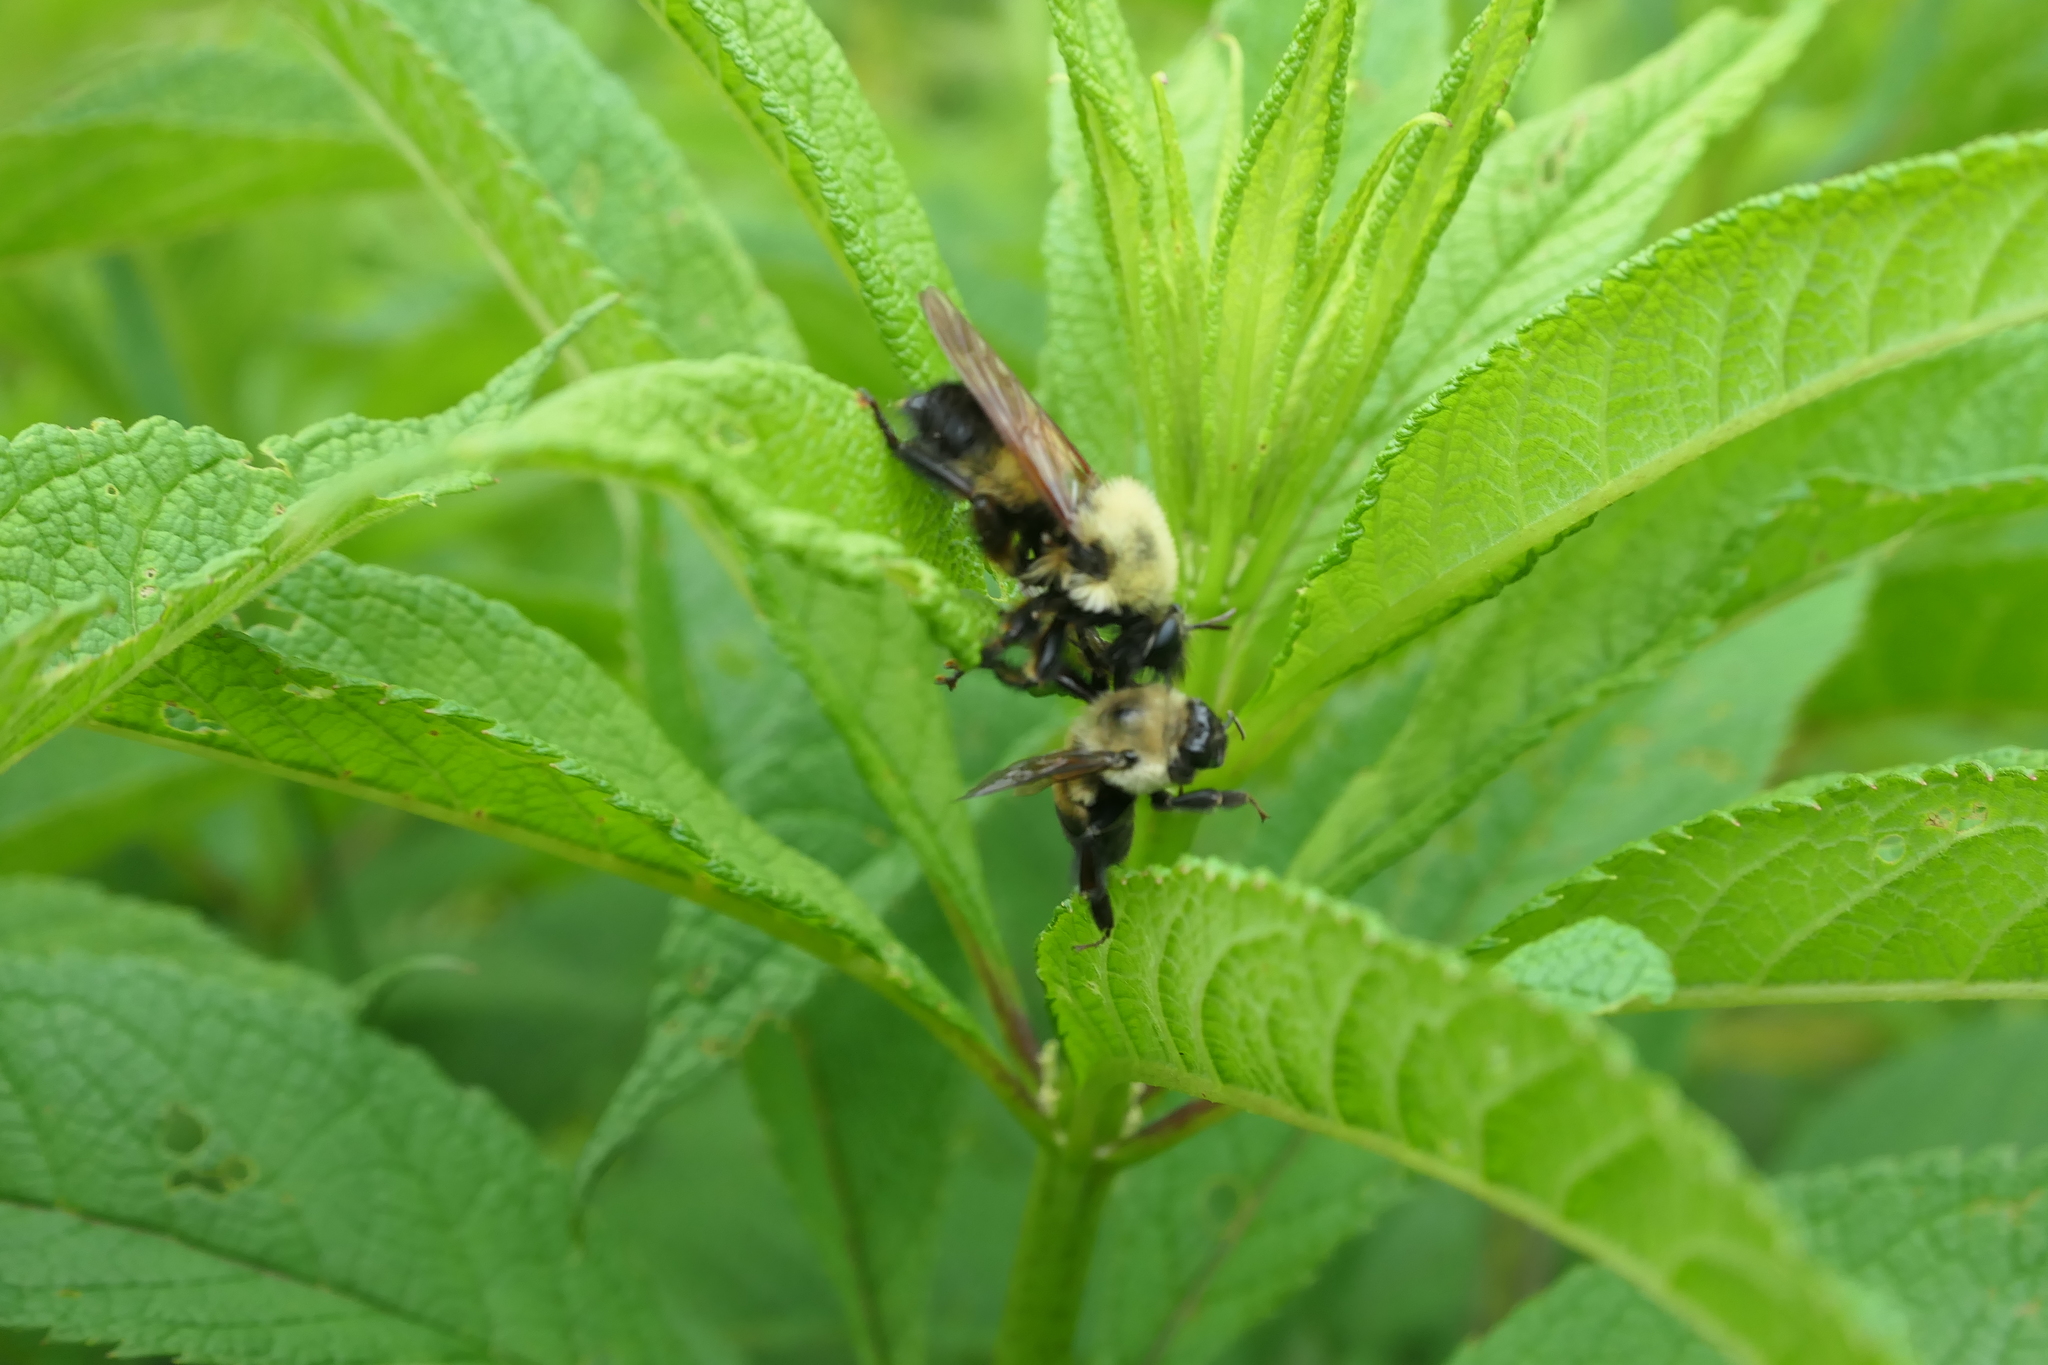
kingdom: Animalia
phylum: Arthropoda
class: Insecta
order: Diptera
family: Asilidae
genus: Laphria
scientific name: Laphria thoracica
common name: Bumble bee mimic robber fly
